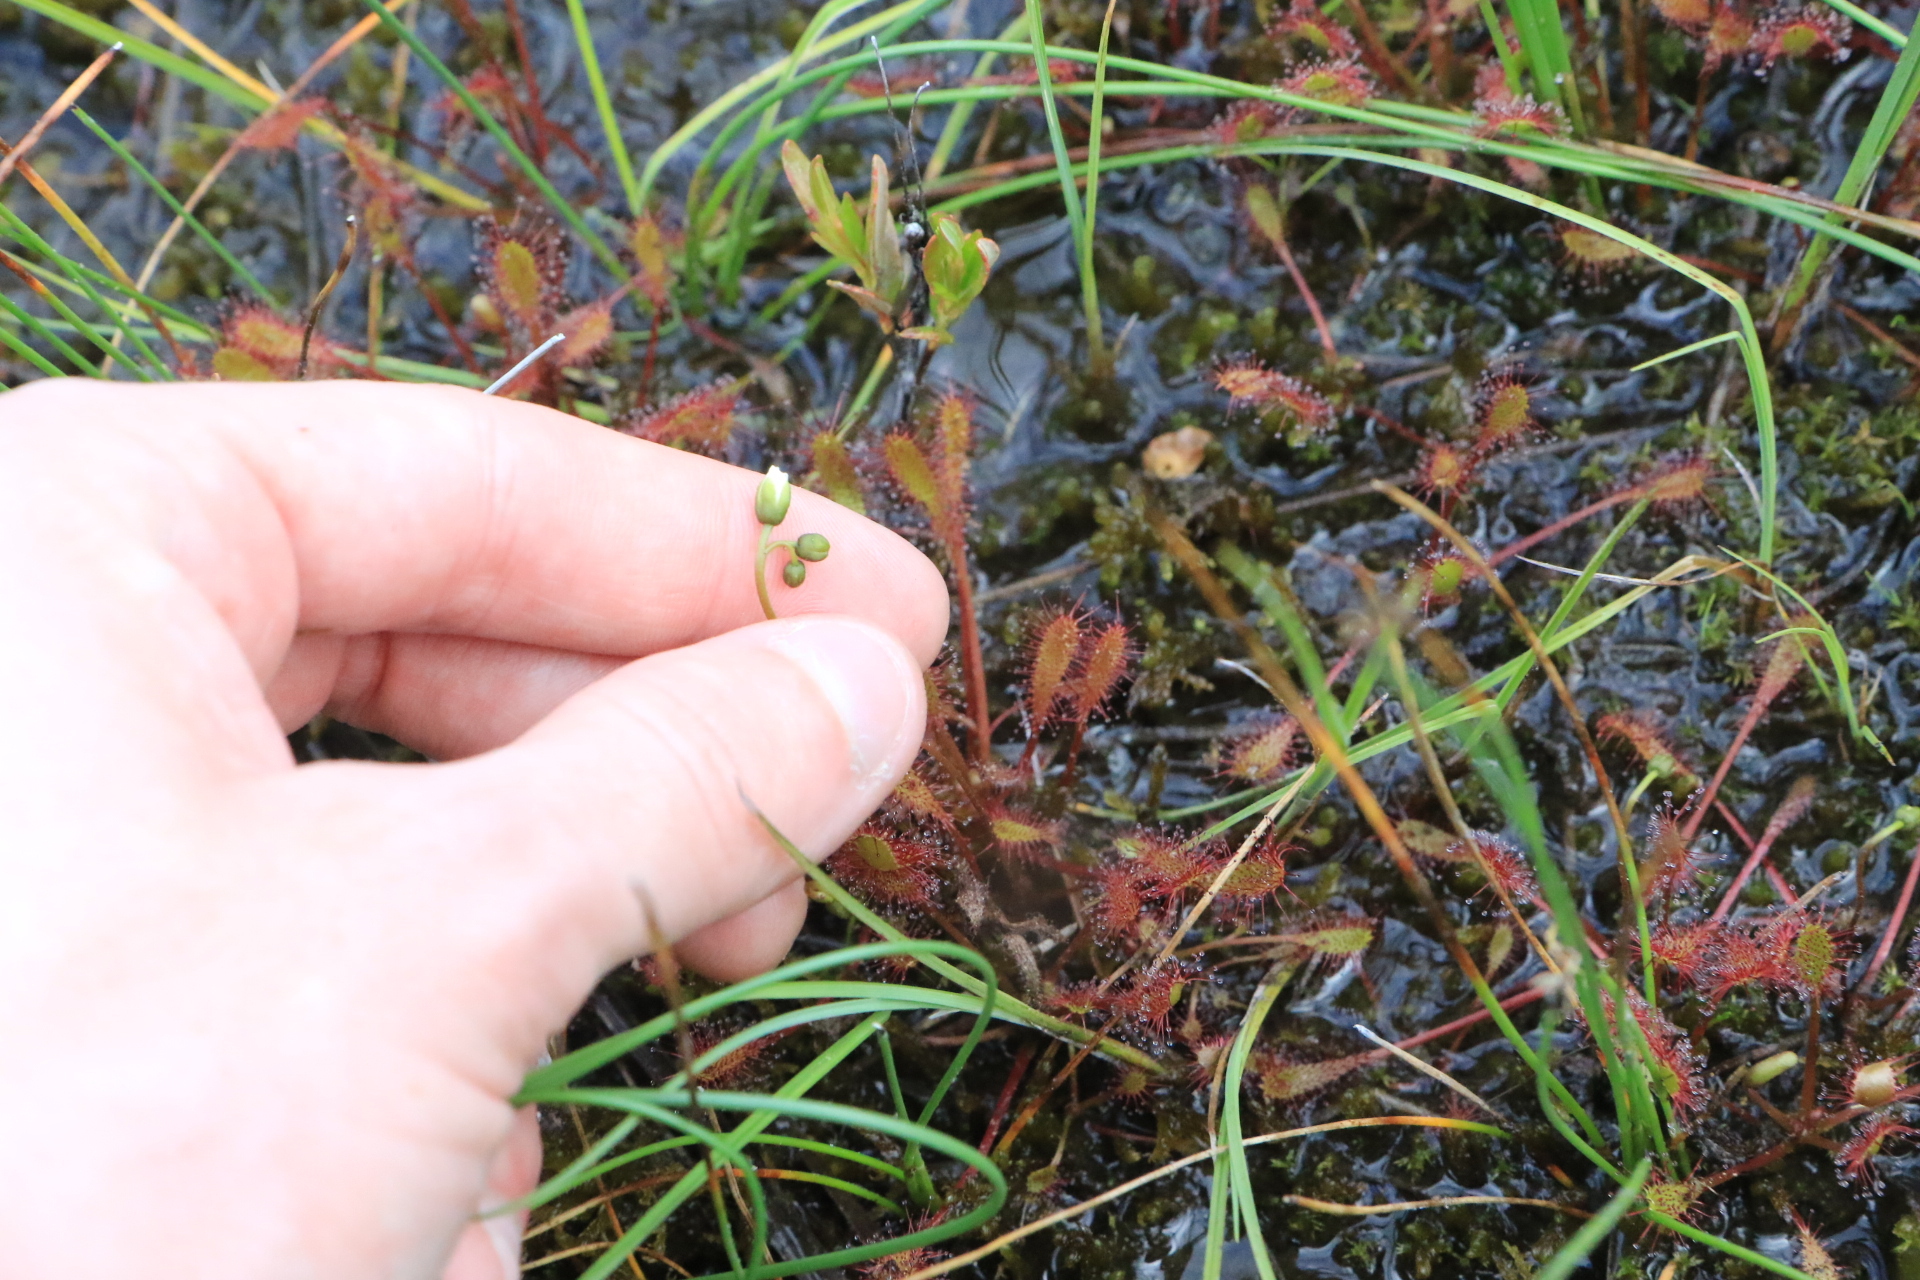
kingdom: Plantae
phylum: Tracheophyta
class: Magnoliopsida
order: Caryophyllales
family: Droseraceae
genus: Drosera
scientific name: Drosera anglica
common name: Great sundew
